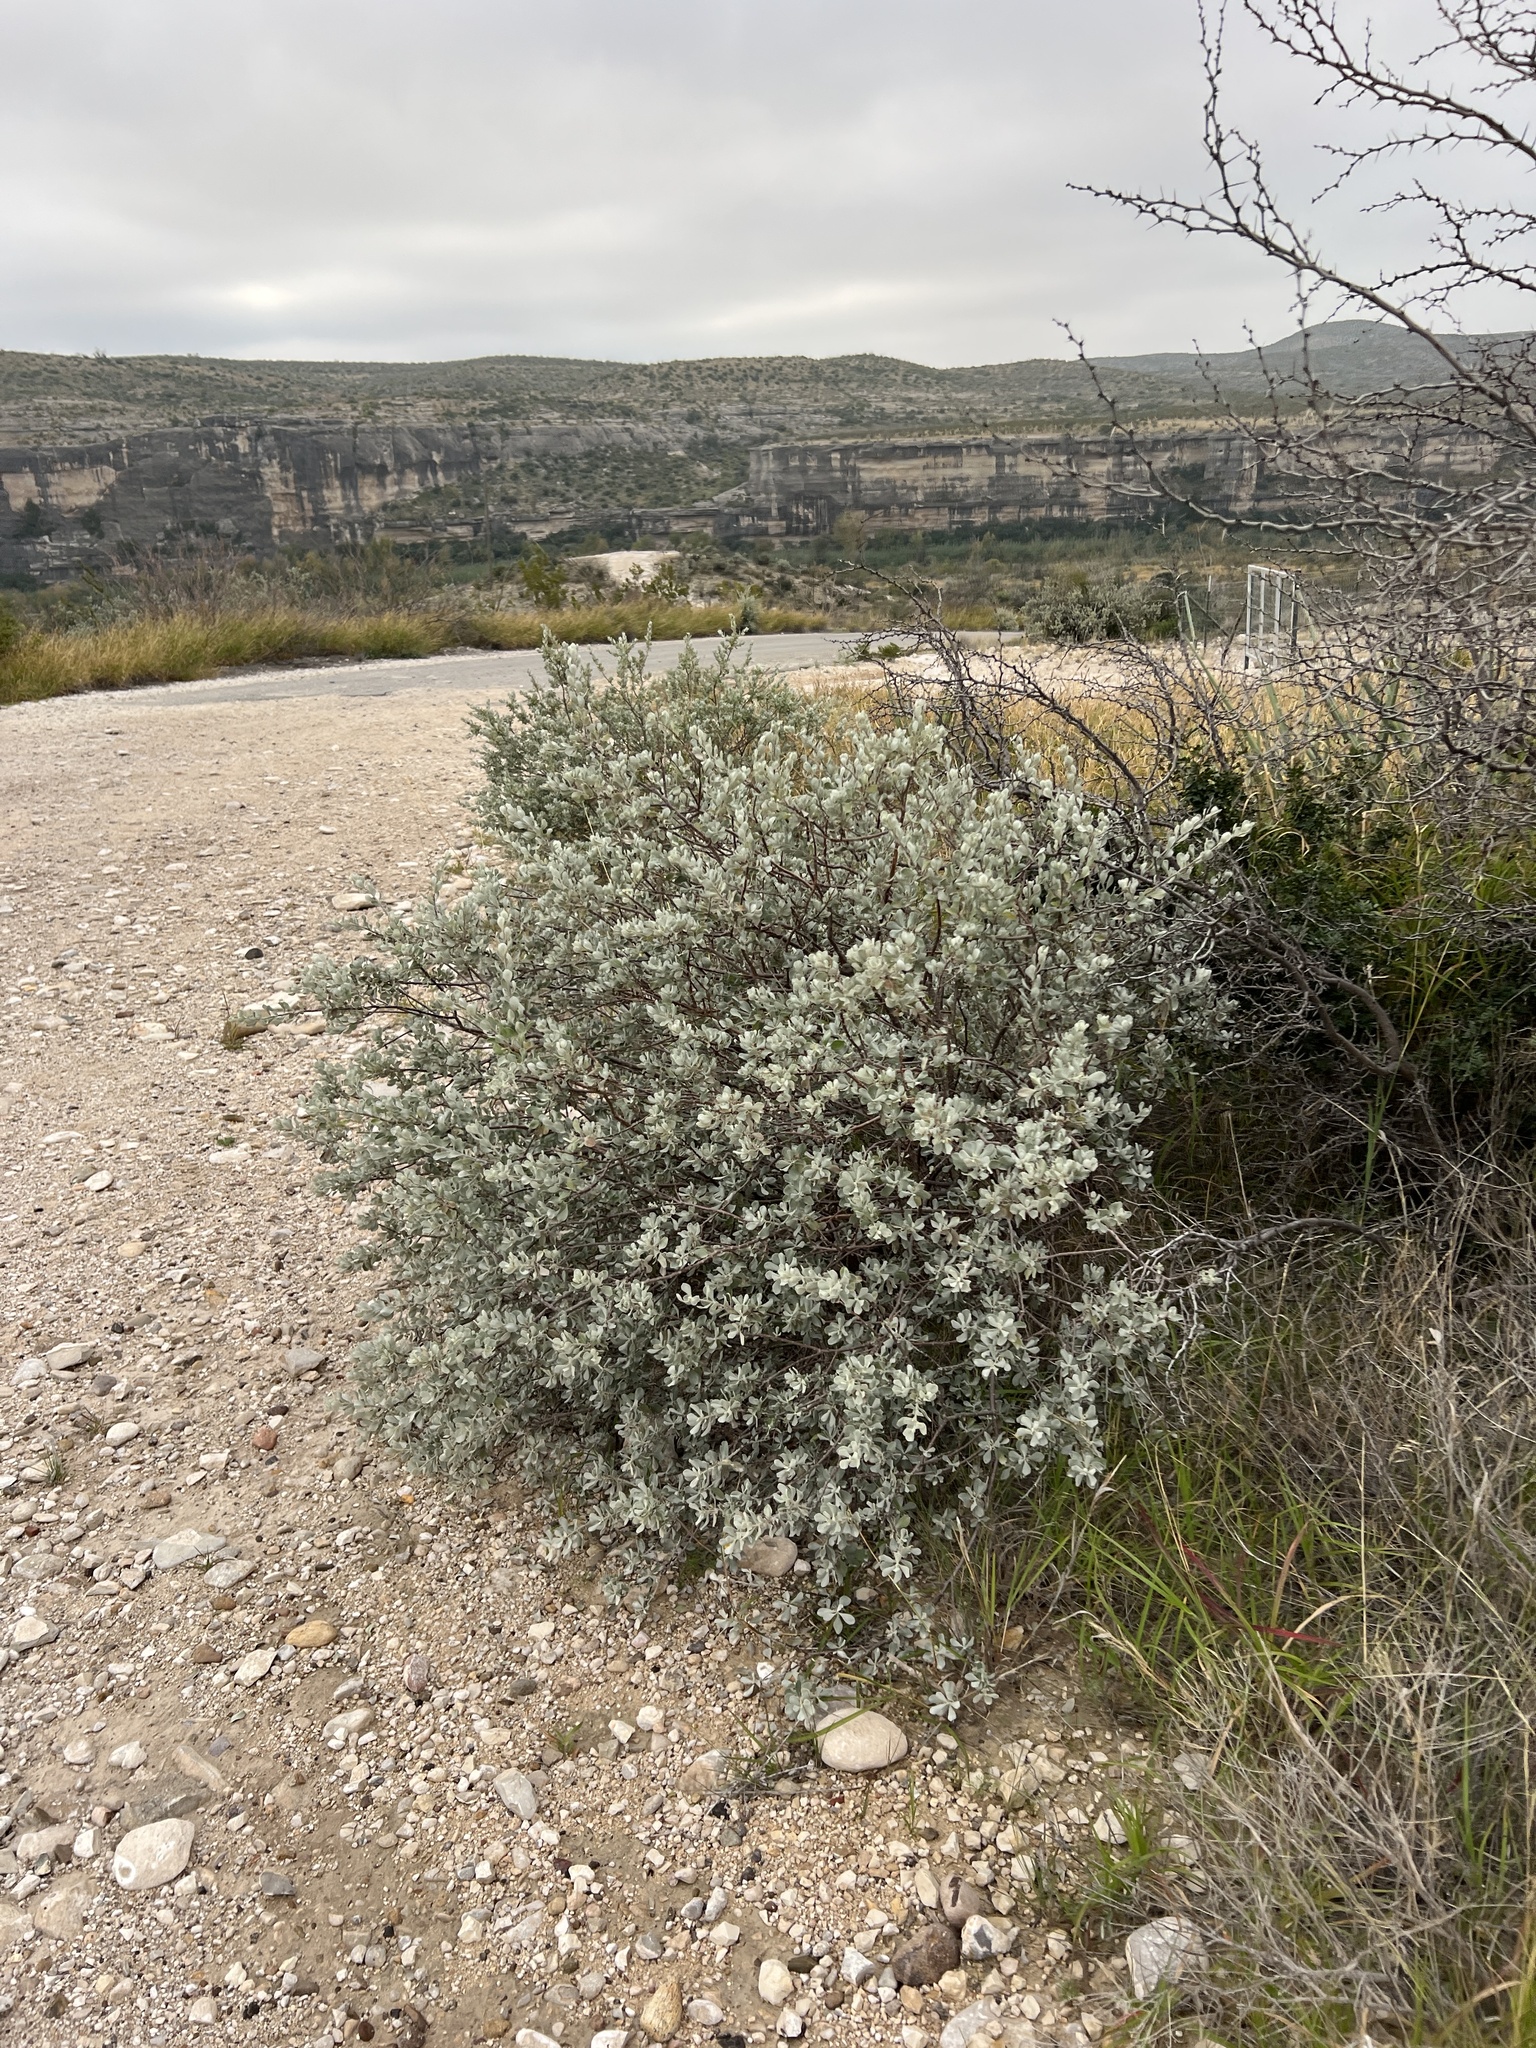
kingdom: Plantae
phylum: Tracheophyta
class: Magnoliopsida
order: Lamiales
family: Scrophulariaceae
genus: Leucophyllum
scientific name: Leucophyllum frutescens
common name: Texas silverleaf
